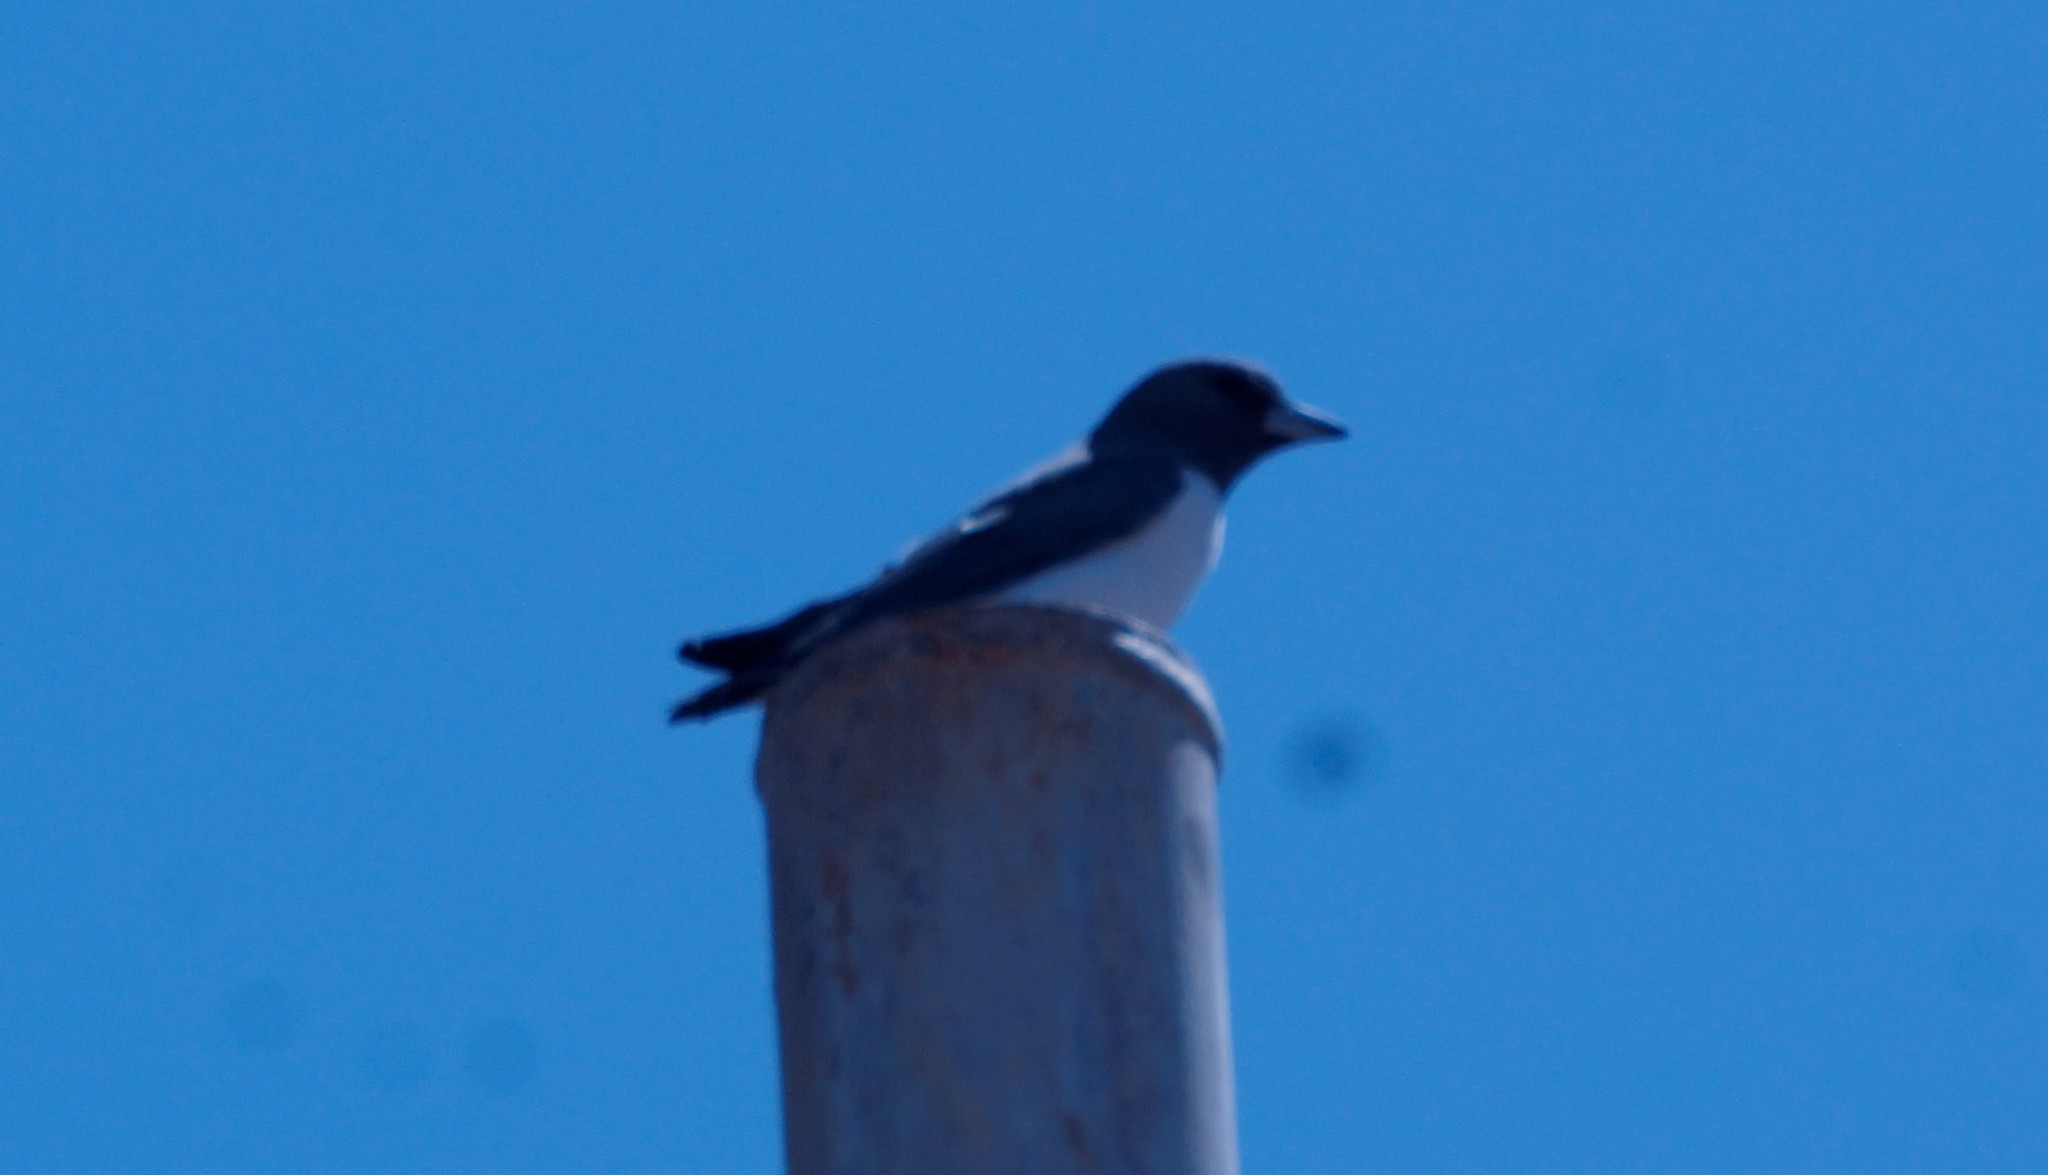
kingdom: Animalia
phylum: Chordata
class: Aves
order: Passeriformes
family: Artamidae
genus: Artamus
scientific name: Artamus leucoryn
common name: White-breasted woodswallow
